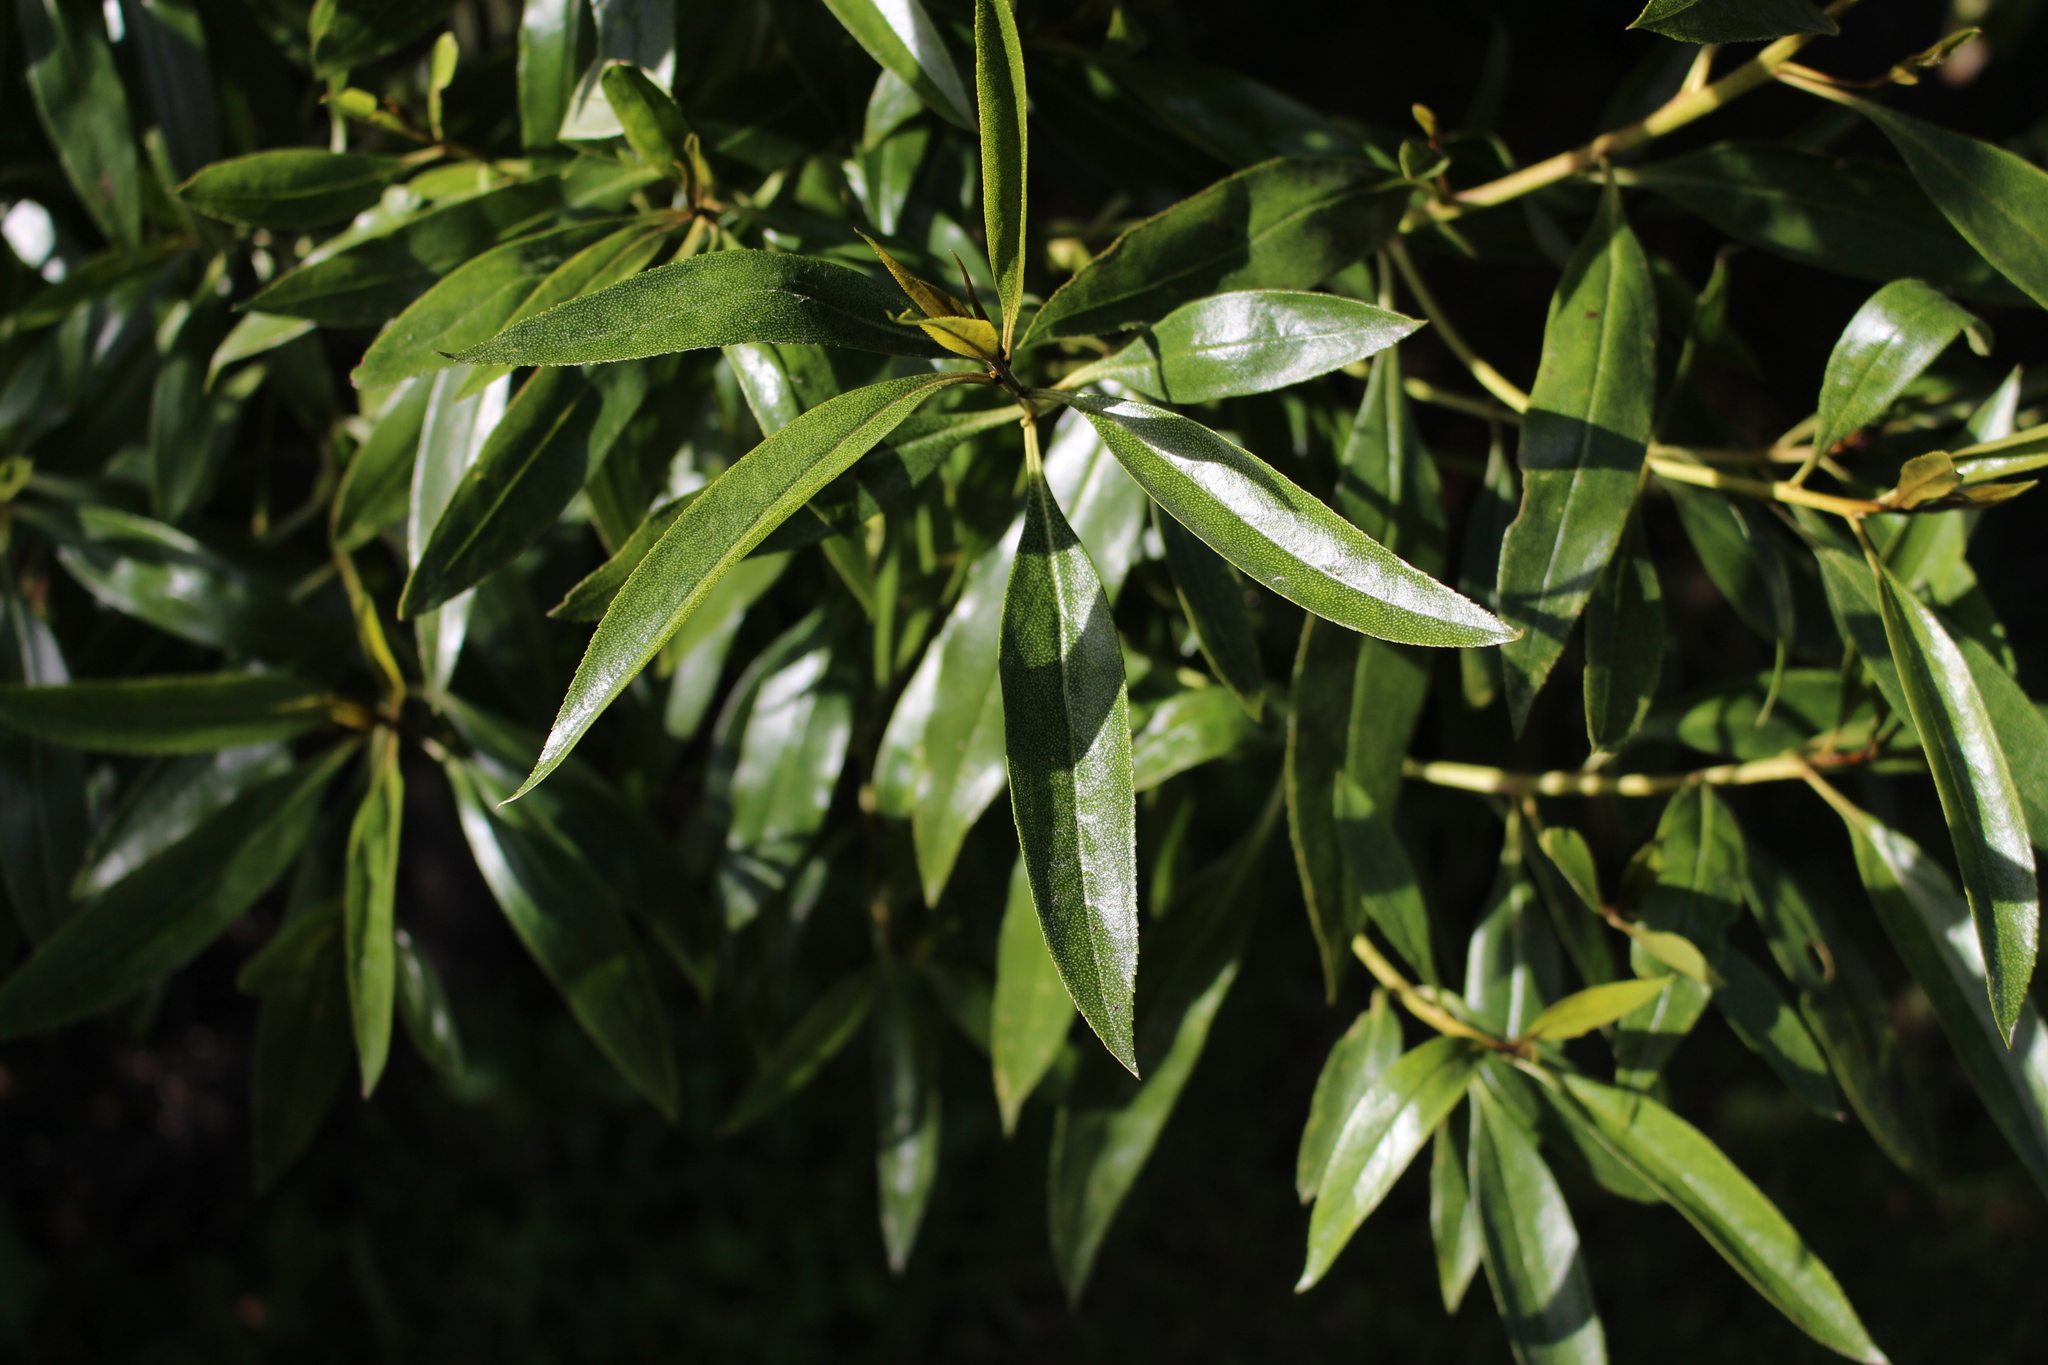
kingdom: Plantae
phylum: Tracheophyta
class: Magnoliopsida
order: Lamiales
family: Scrophulariaceae
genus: Myoporum
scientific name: Myoporum laetum
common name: Ngaio tree
